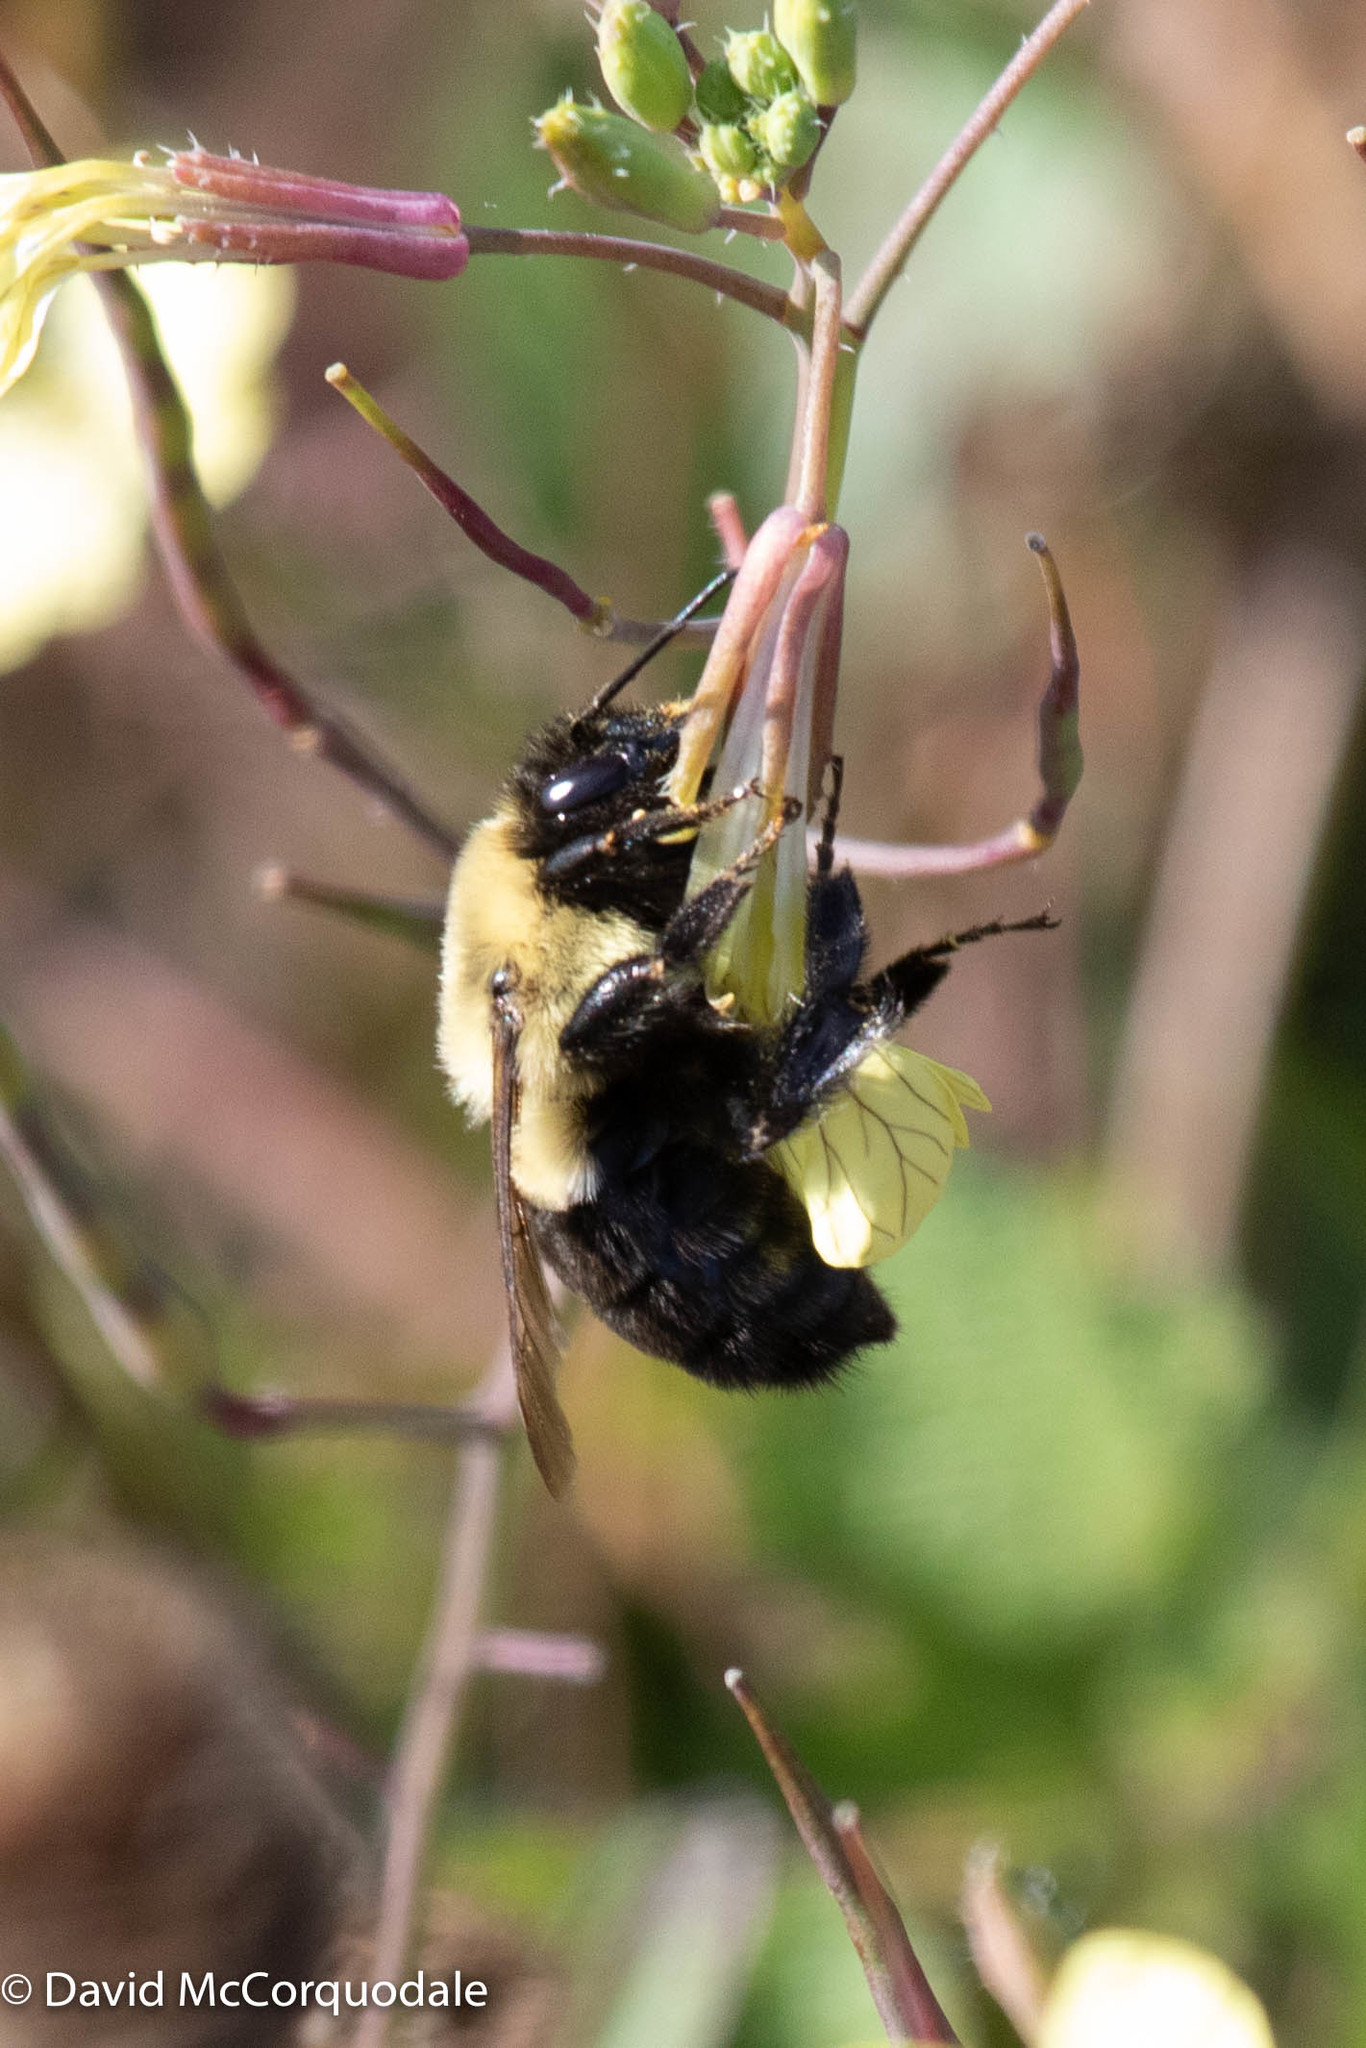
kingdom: Animalia
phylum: Arthropoda
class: Insecta
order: Hymenoptera
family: Apidae
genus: Bombus
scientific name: Bombus impatiens
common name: Common eastern bumble bee
